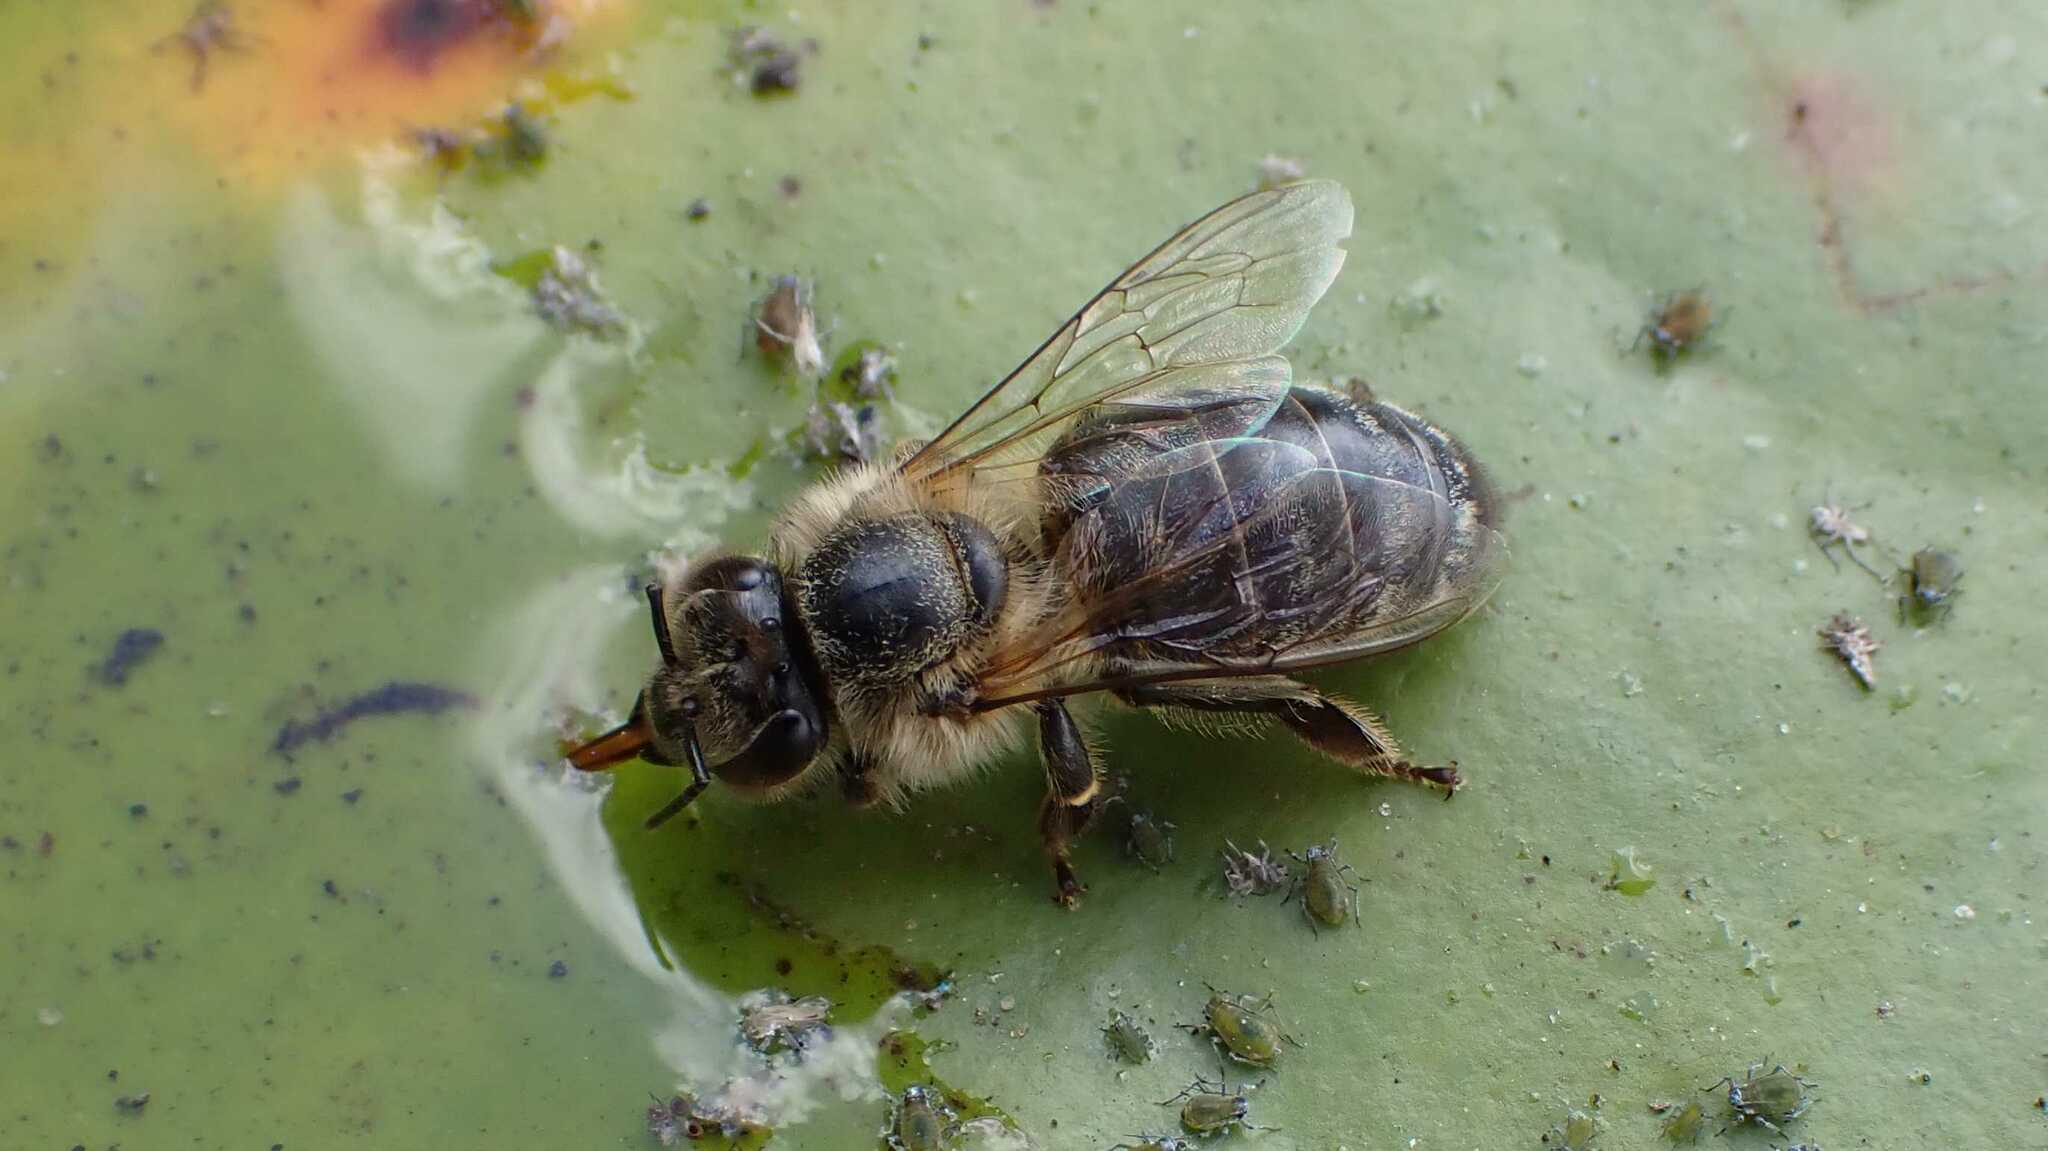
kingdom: Animalia
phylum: Arthropoda
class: Insecta
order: Hymenoptera
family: Apidae
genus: Apis
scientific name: Apis mellifera
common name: Honey bee
